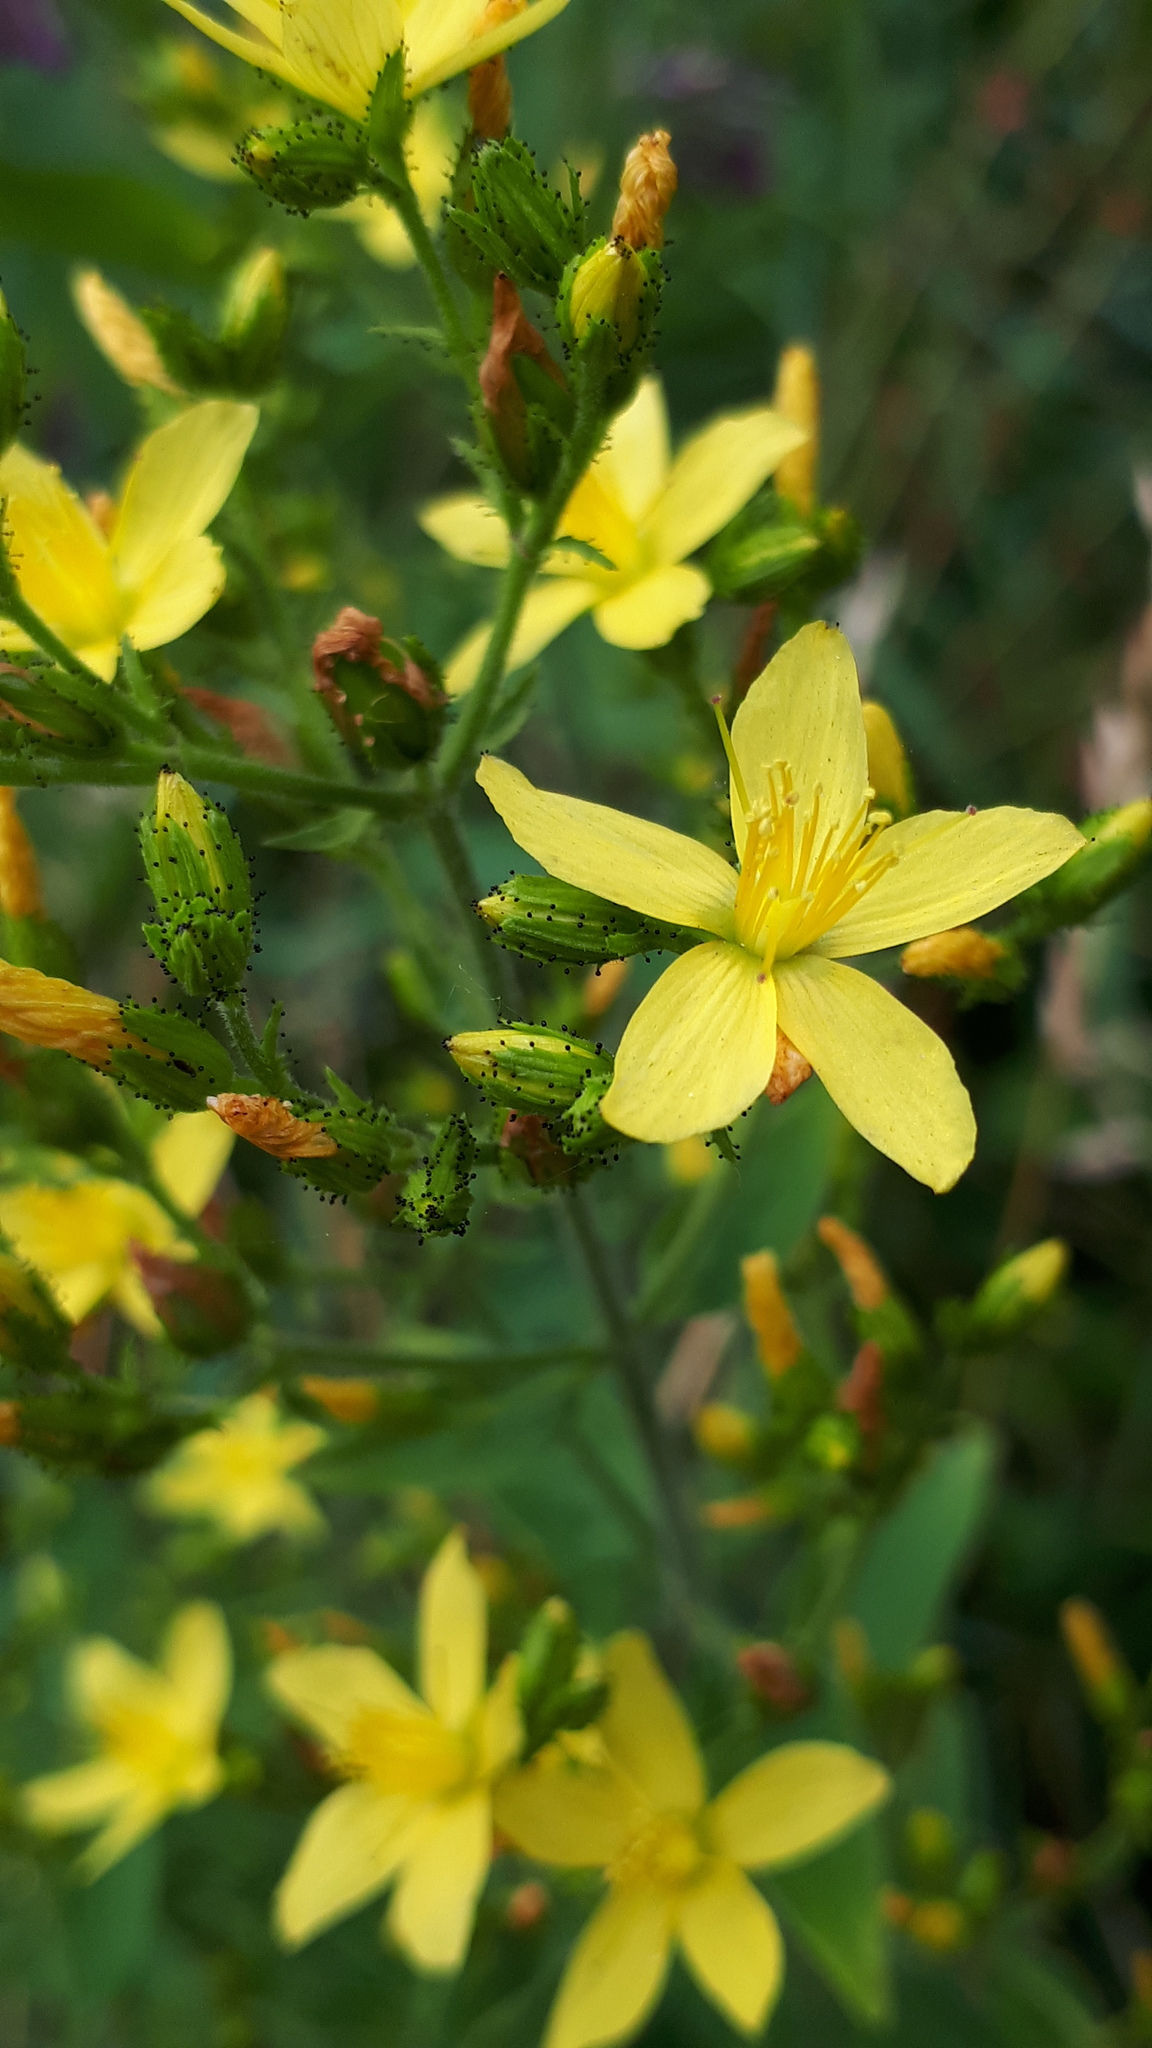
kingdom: Plantae
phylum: Tracheophyta
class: Magnoliopsida
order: Malpighiales
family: Hypericaceae
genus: Hypericum
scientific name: Hypericum hirsutum
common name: Hairy st. john's-wort
